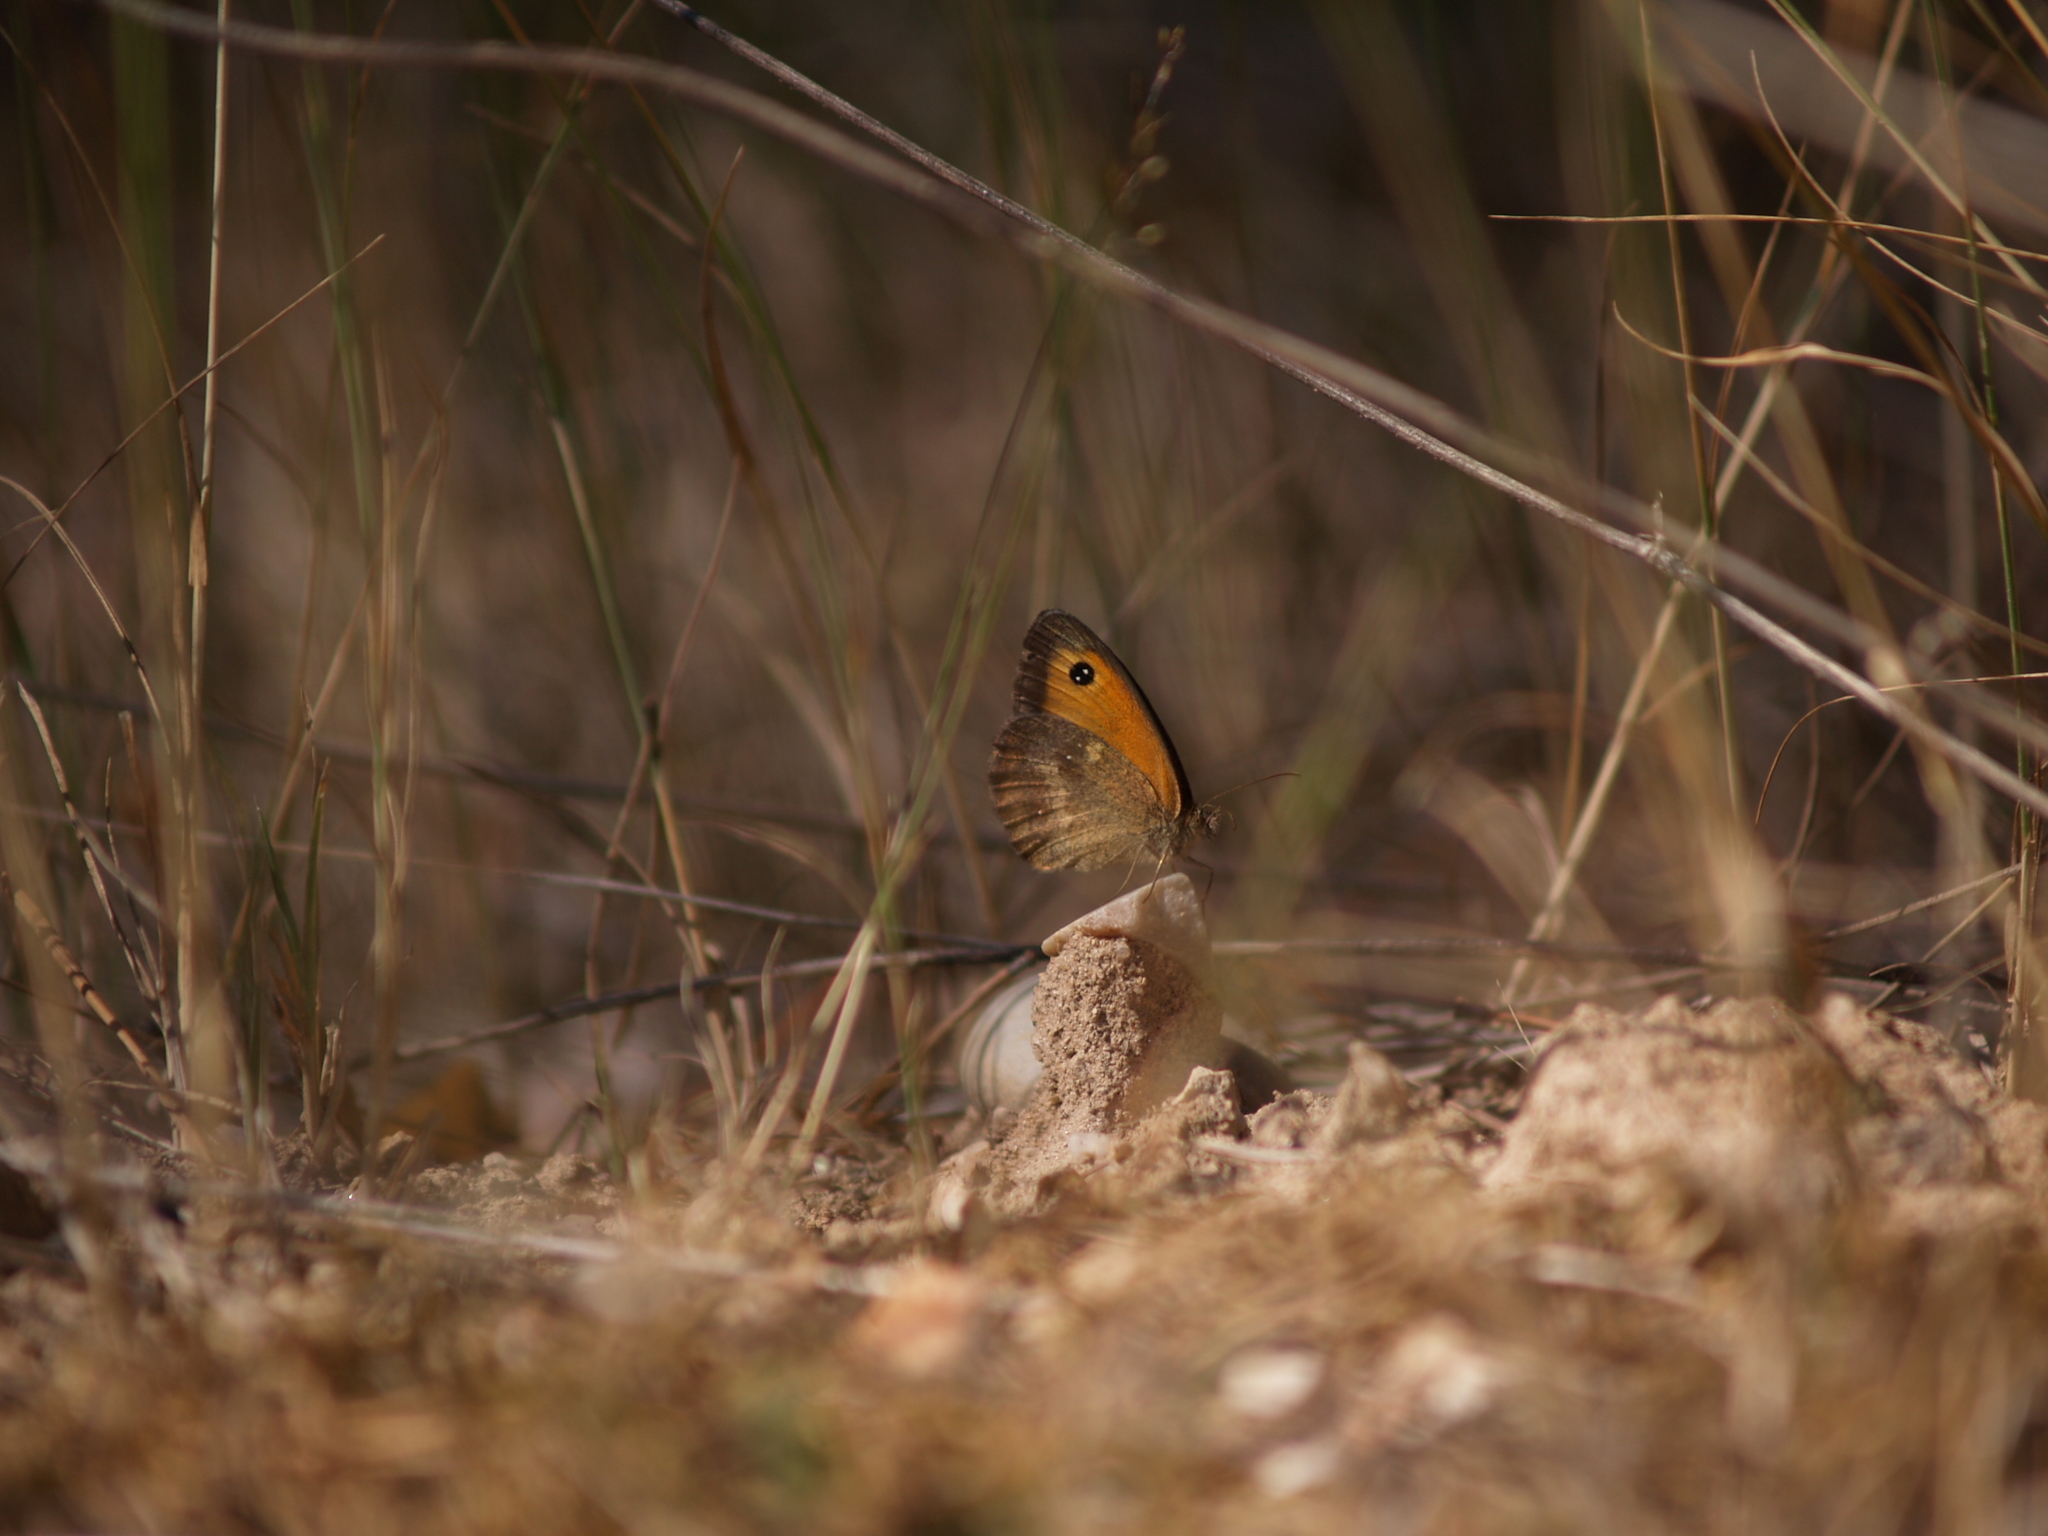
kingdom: Animalia
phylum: Arthropoda
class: Insecta
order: Lepidoptera
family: Nymphalidae
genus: Pyronia
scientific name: Pyronia tithonus
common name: Gatekeeper
